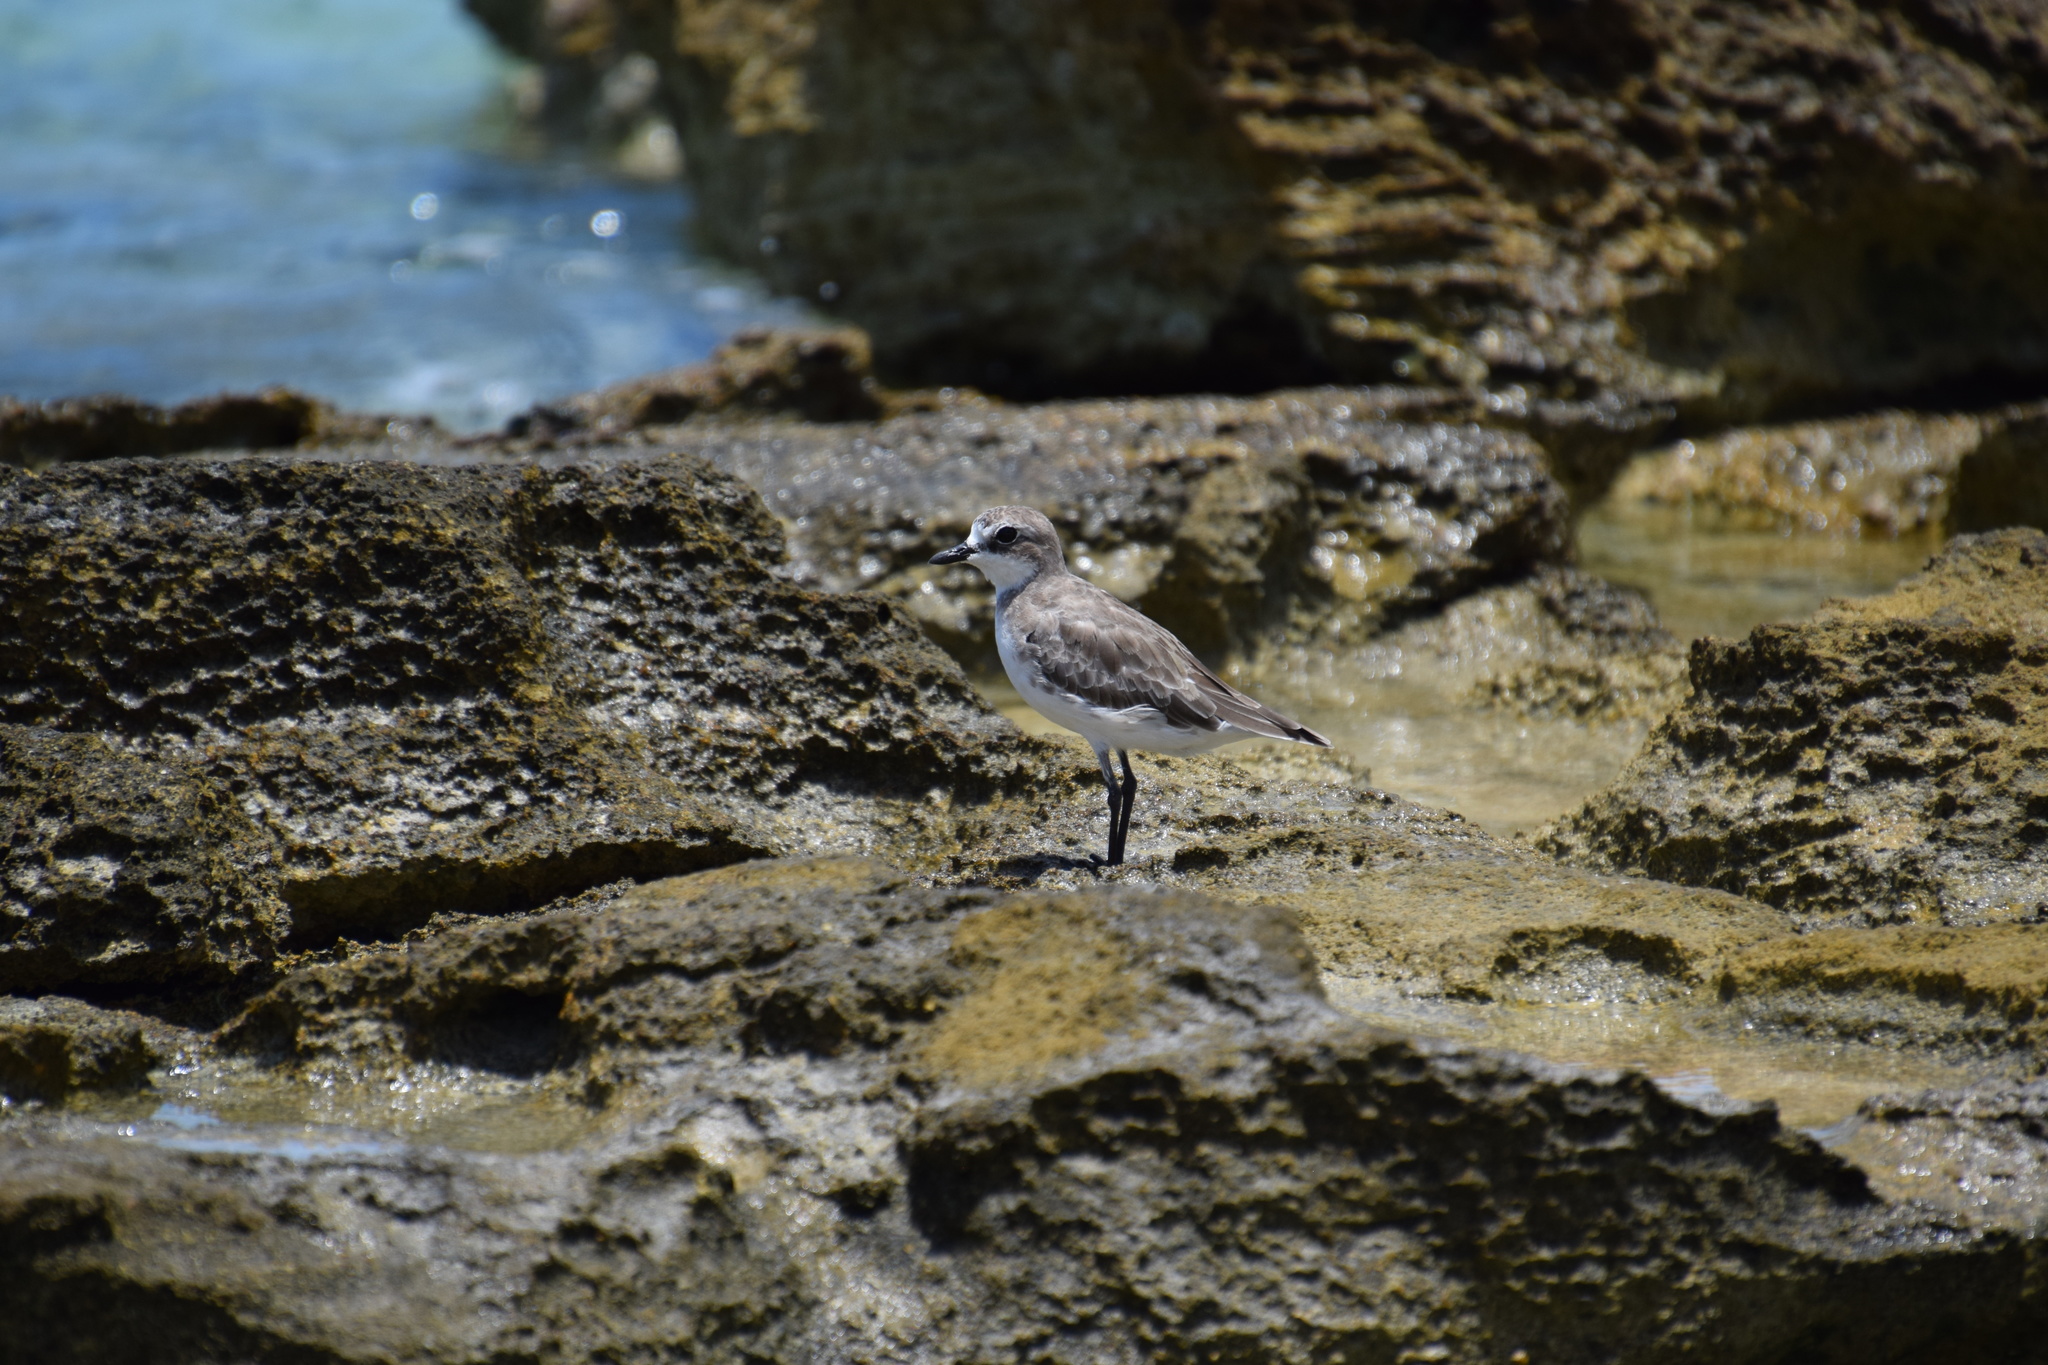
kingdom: Animalia
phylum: Chordata
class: Aves
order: Charadriiformes
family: Charadriidae
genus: Anarhynchus
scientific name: Anarhynchus
